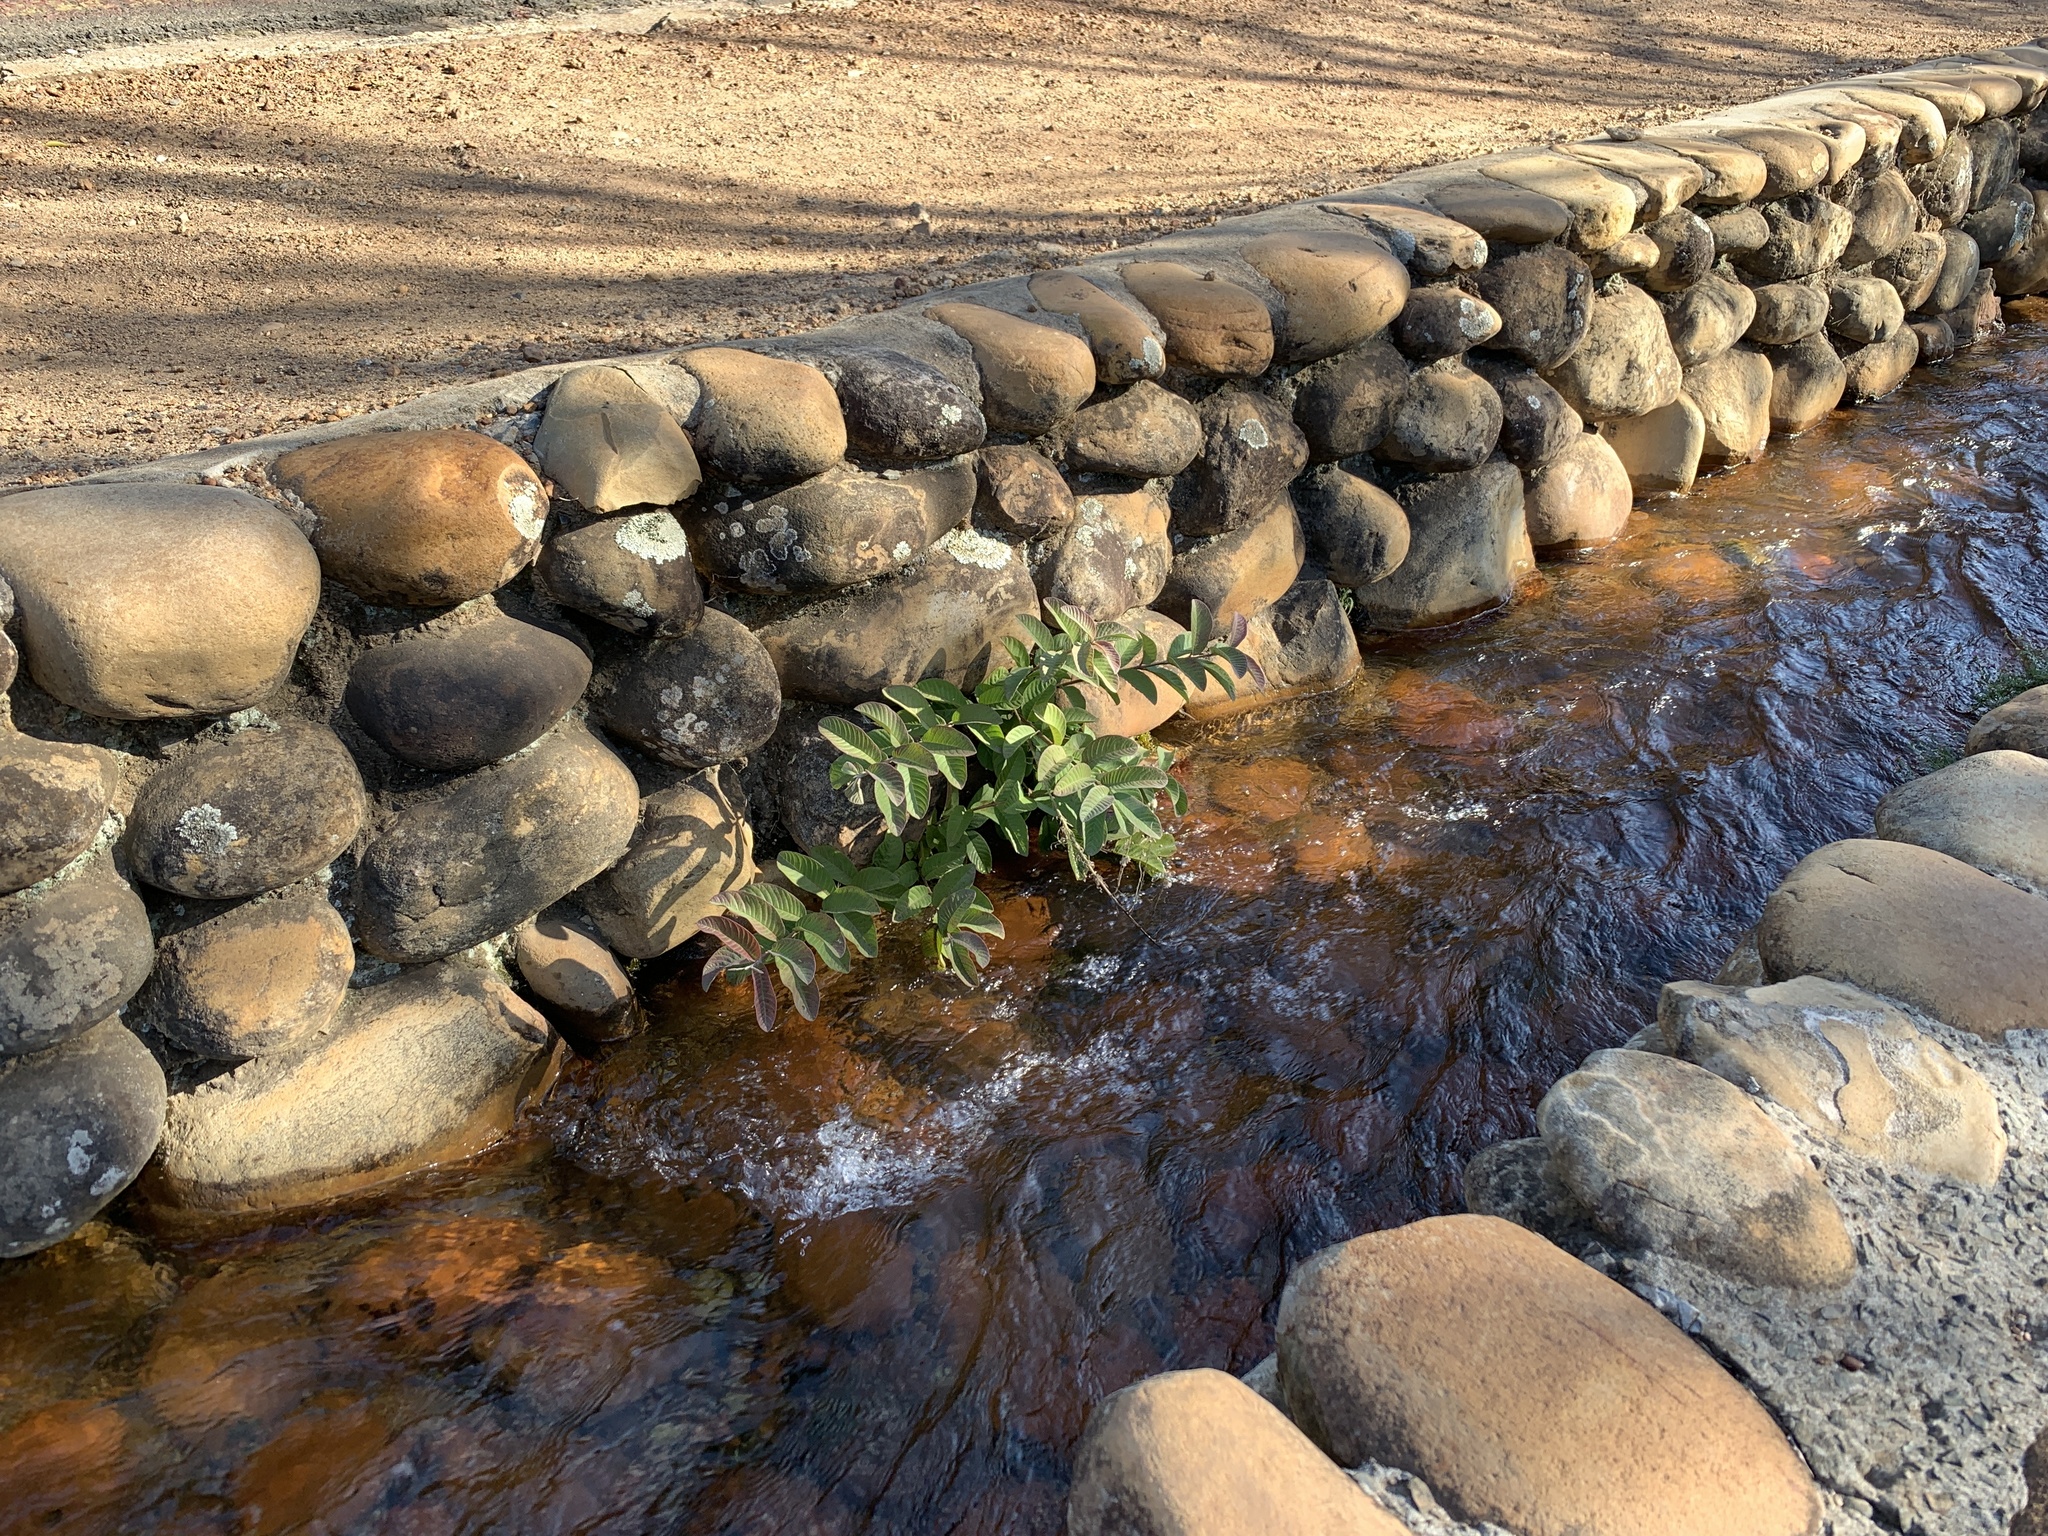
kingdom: Plantae
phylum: Tracheophyta
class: Magnoliopsida
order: Myrtales
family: Myrtaceae
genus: Psidium
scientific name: Psidium guajava
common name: Guava
